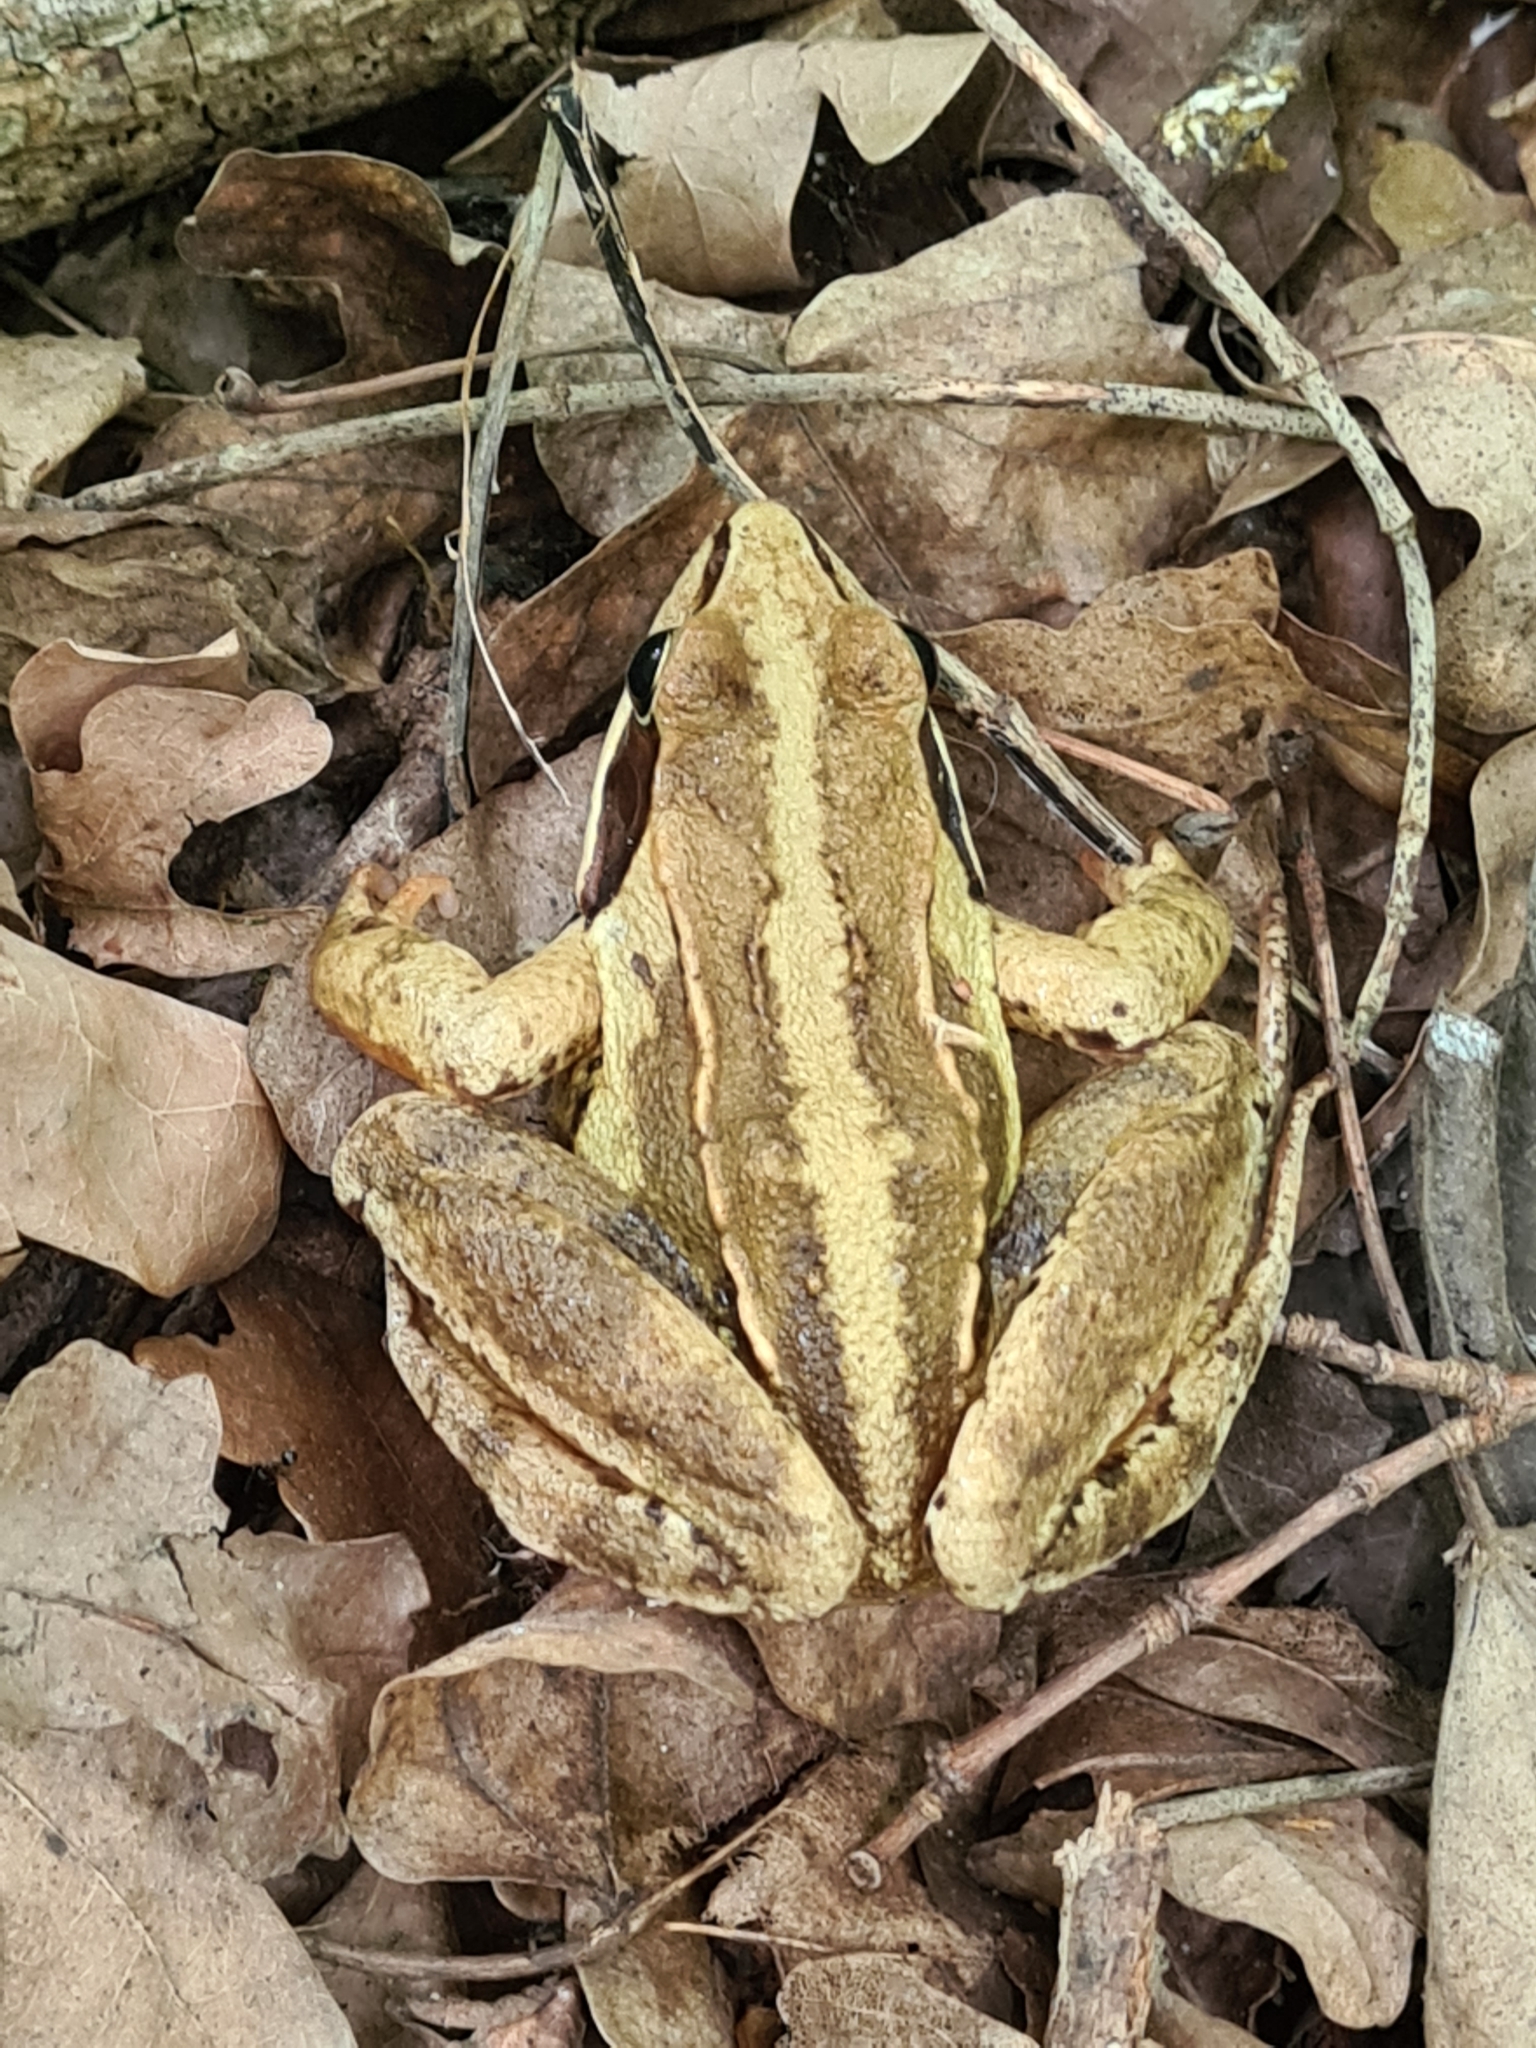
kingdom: Animalia
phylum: Chordata
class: Amphibia
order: Anura
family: Ranidae
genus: Rana
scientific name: Rana arvalis
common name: Moor frog
